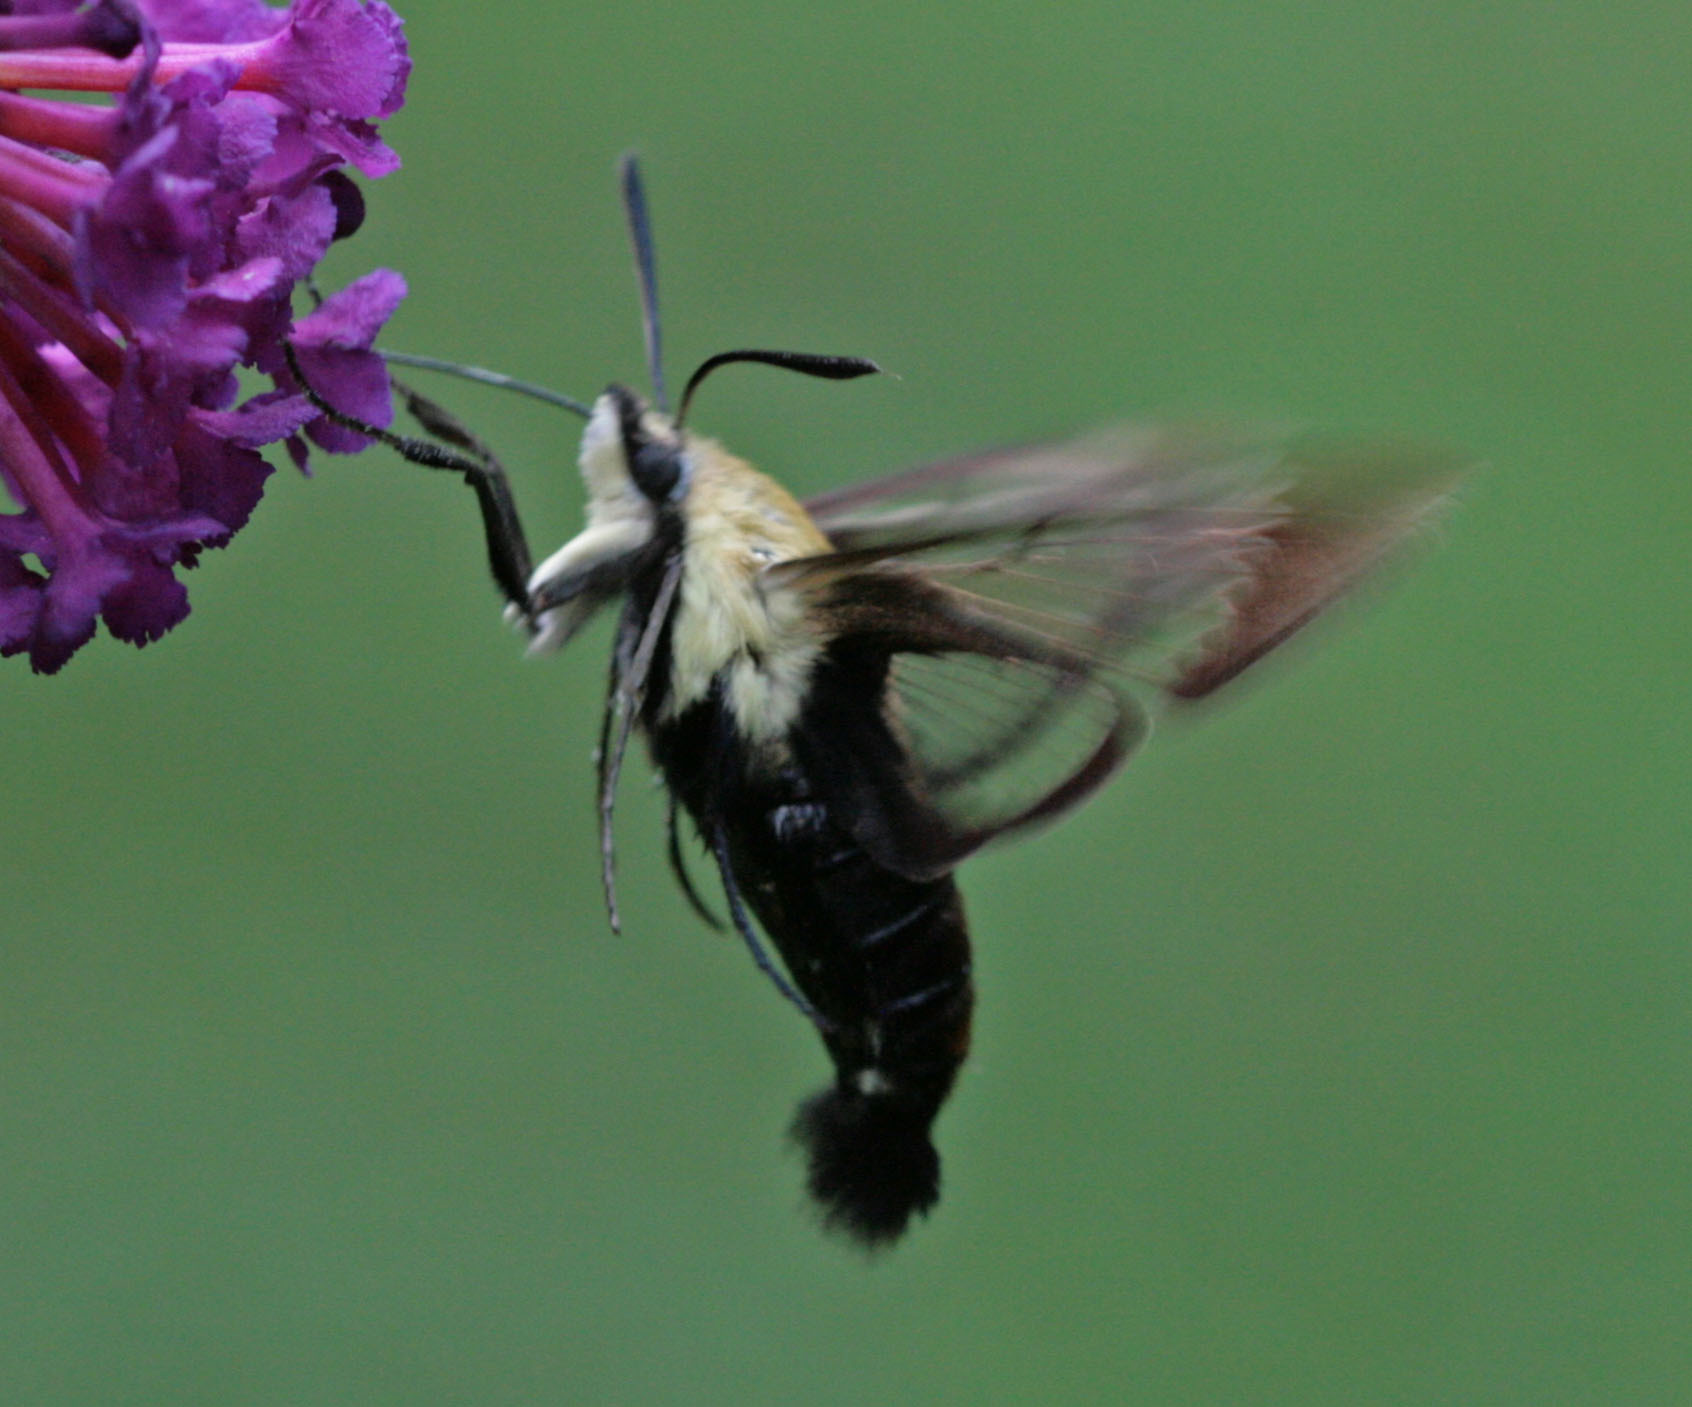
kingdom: Animalia
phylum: Arthropoda
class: Insecta
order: Lepidoptera
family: Sphingidae
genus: Hemaris
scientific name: Hemaris diffinis
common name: Bumblebee moth
